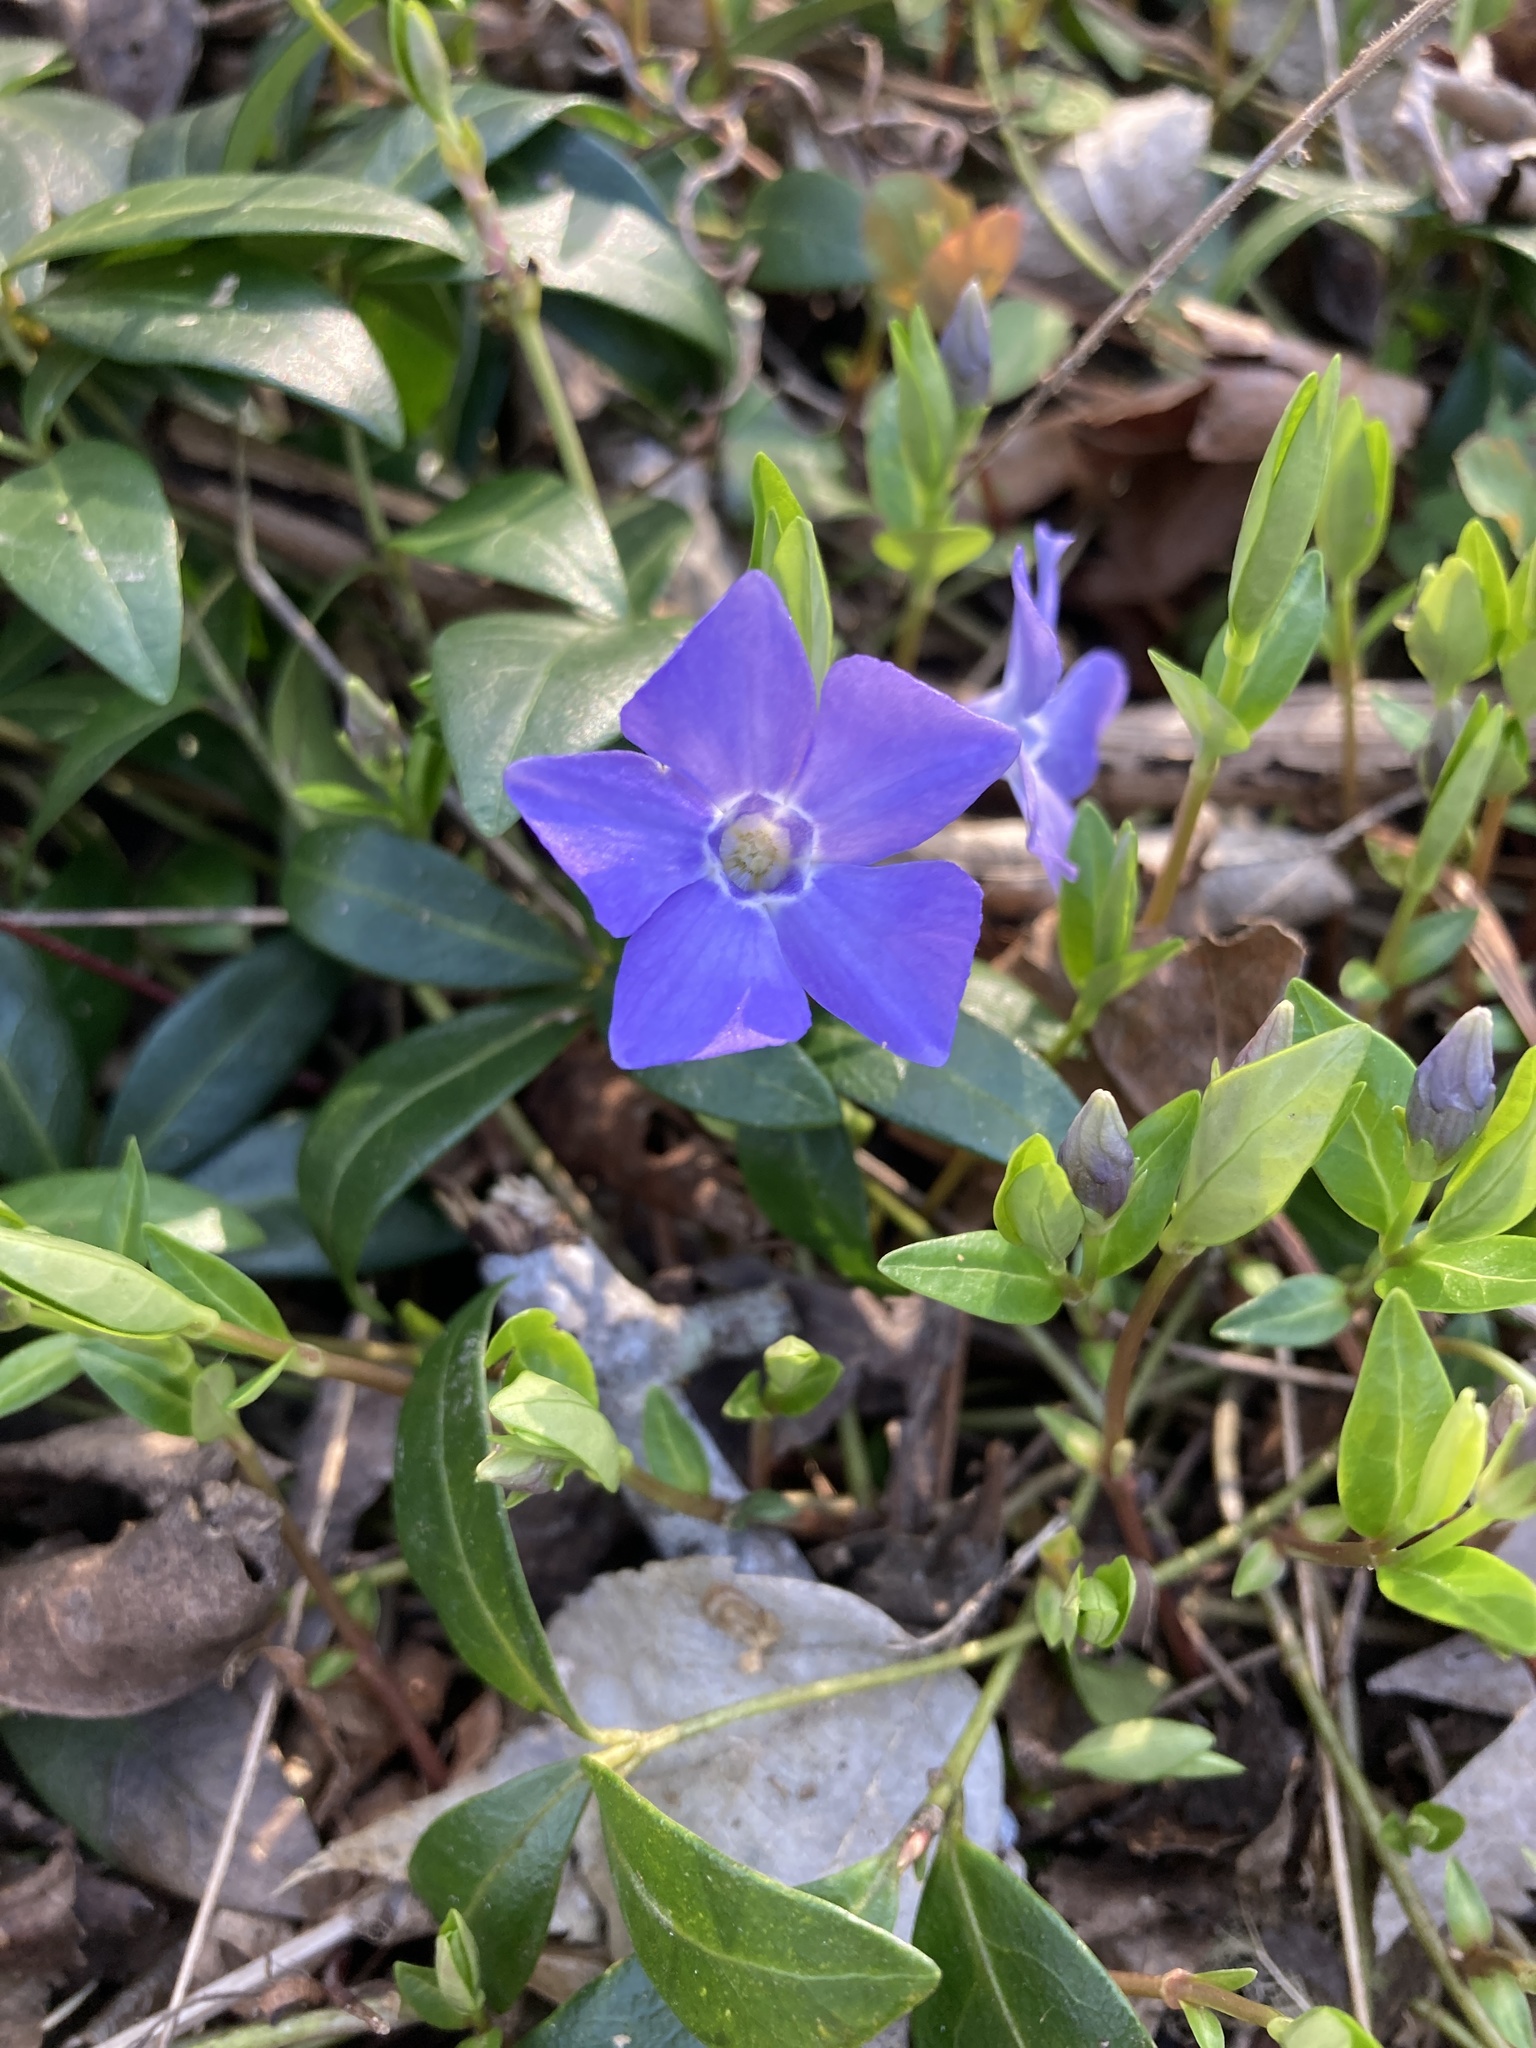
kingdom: Plantae
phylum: Tracheophyta
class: Magnoliopsida
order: Gentianales
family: Apocynaceae
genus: Vinca
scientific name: Vinca minor
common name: Lesser periwinkle
